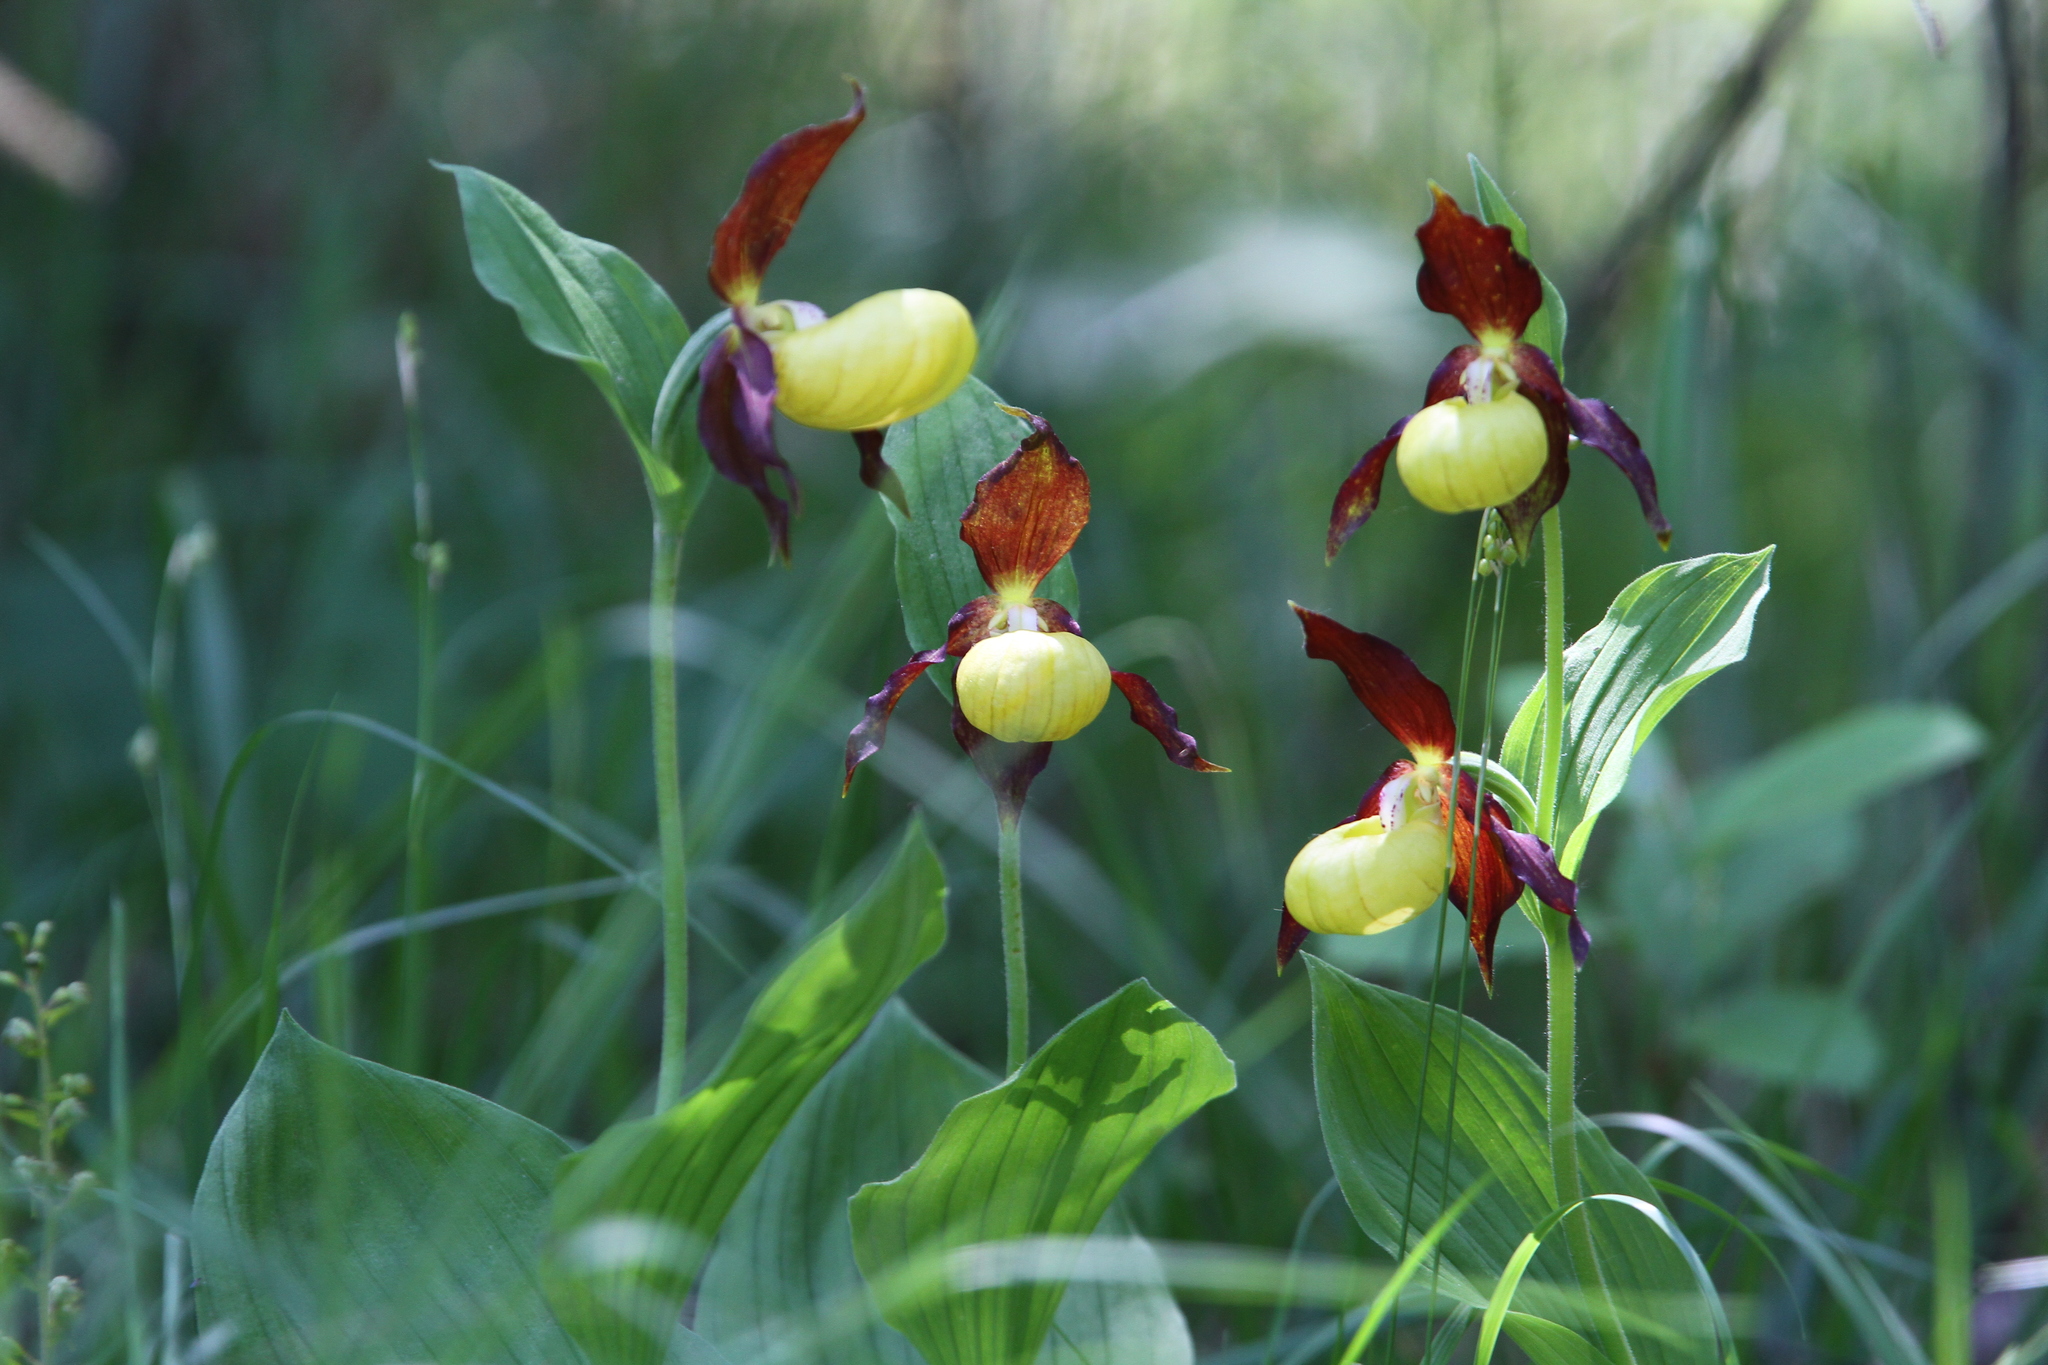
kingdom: Plantae
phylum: Tracheophyta
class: Liliopsida
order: Asparagales
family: Orchidaceae
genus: Cypripedium
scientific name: Cypripedium calceolus
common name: Lady's-slipper
